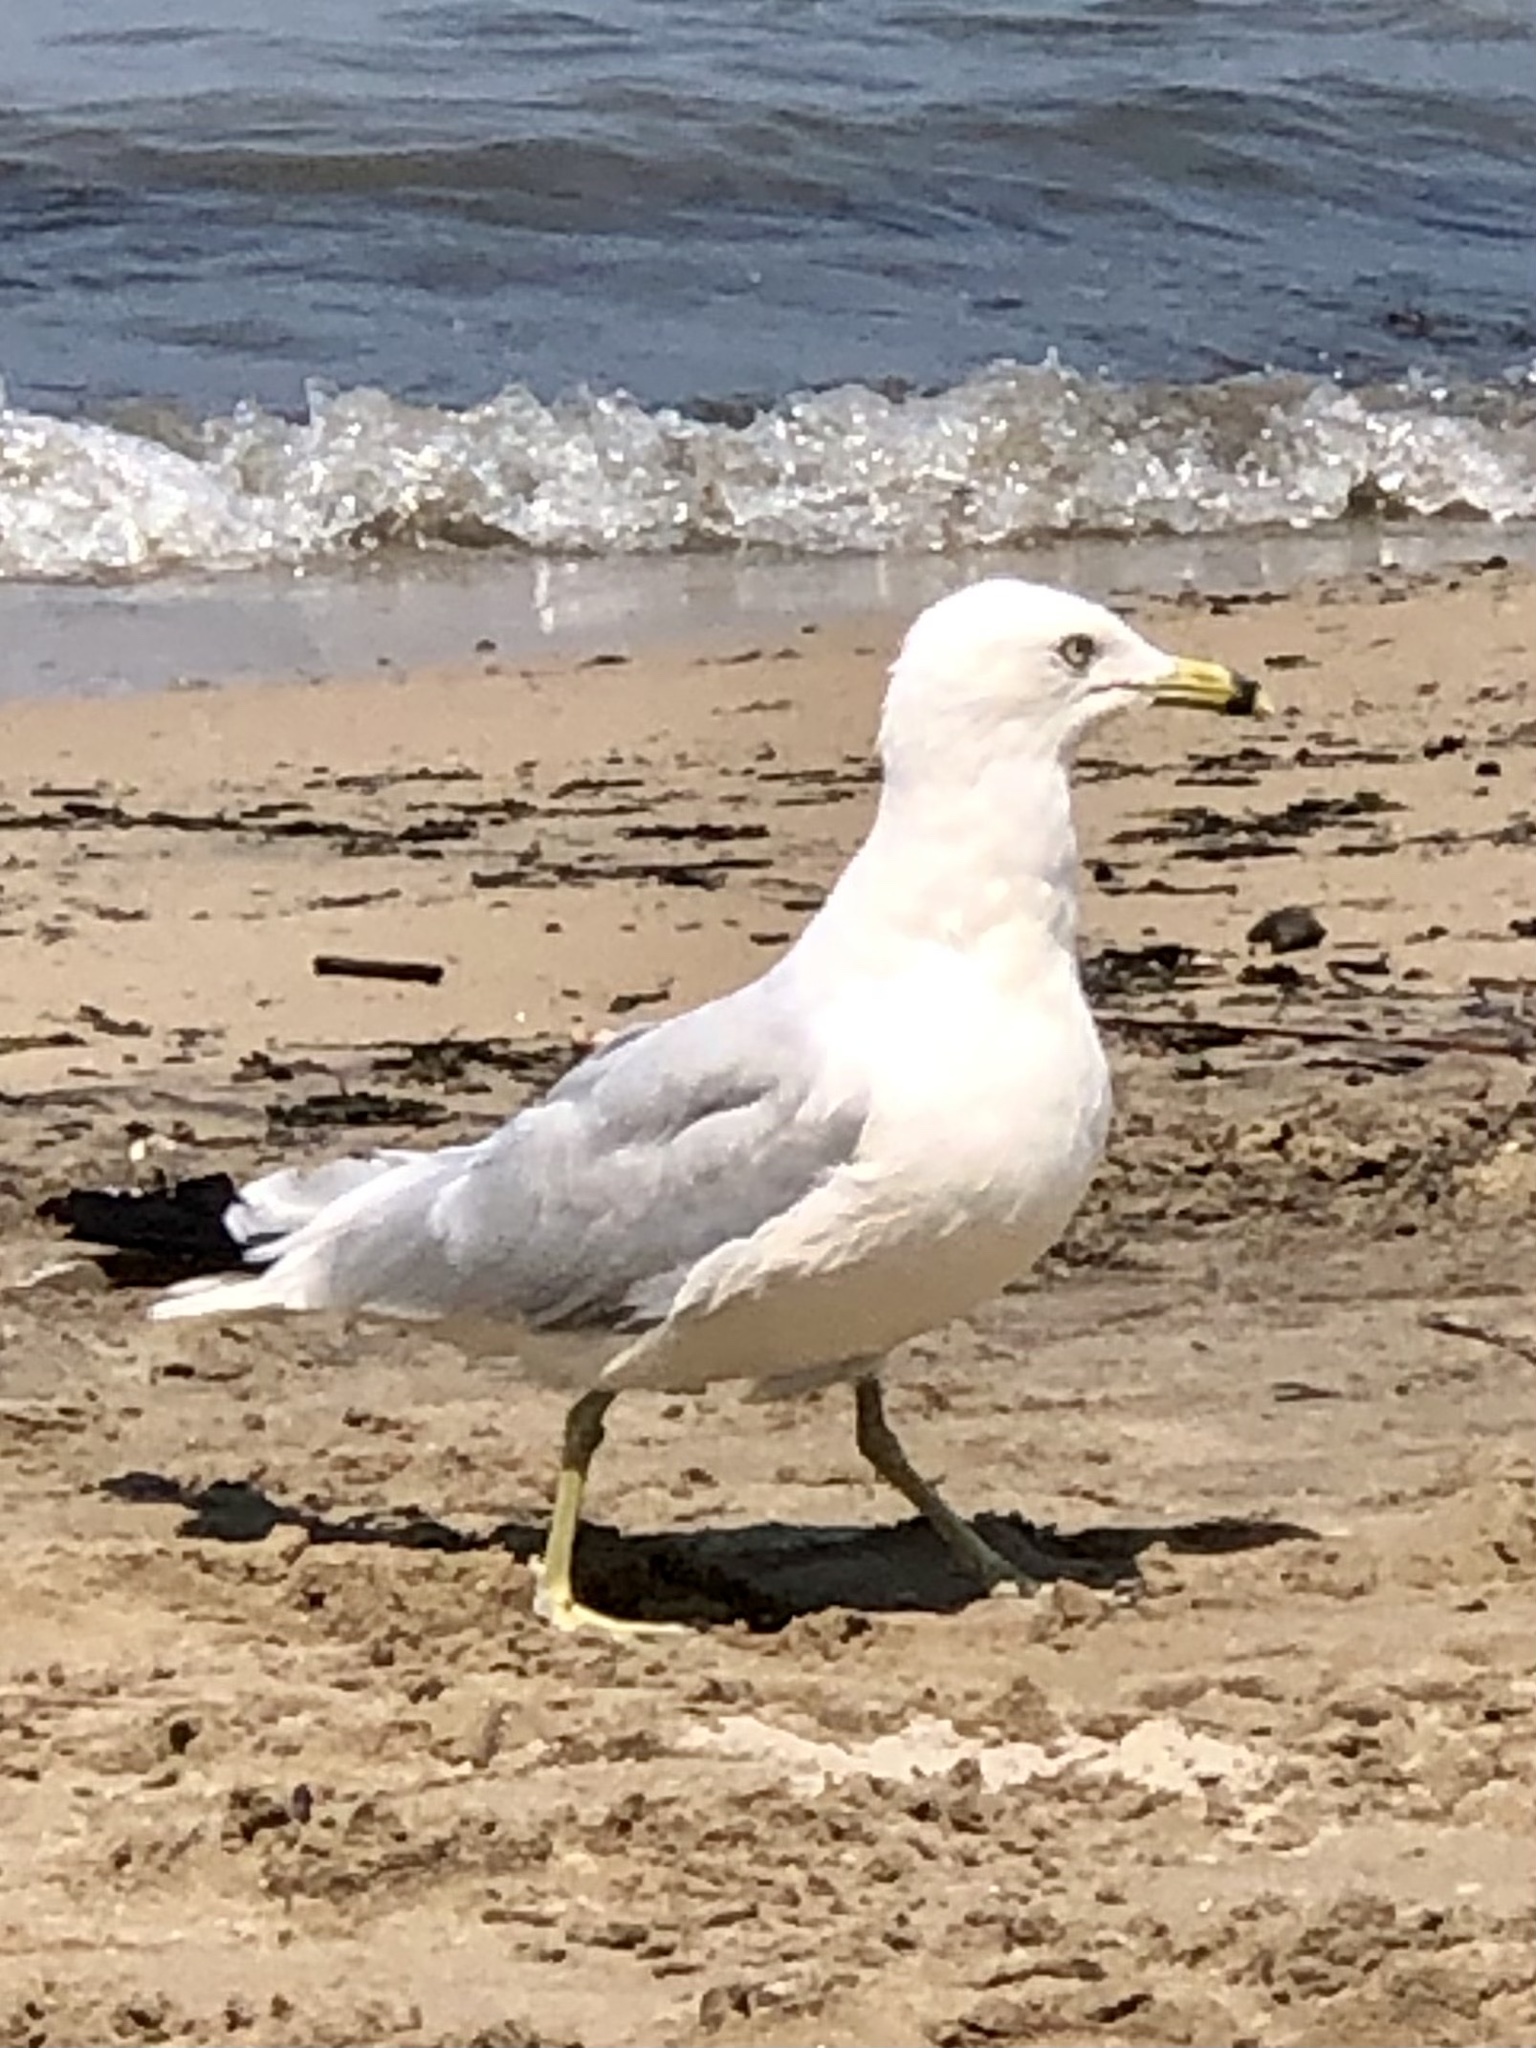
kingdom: Animalia
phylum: Chordata
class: Aves
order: Charadriiformes
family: Laridae
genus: Larus
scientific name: Larus delawarensis
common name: Ring-billed gull
